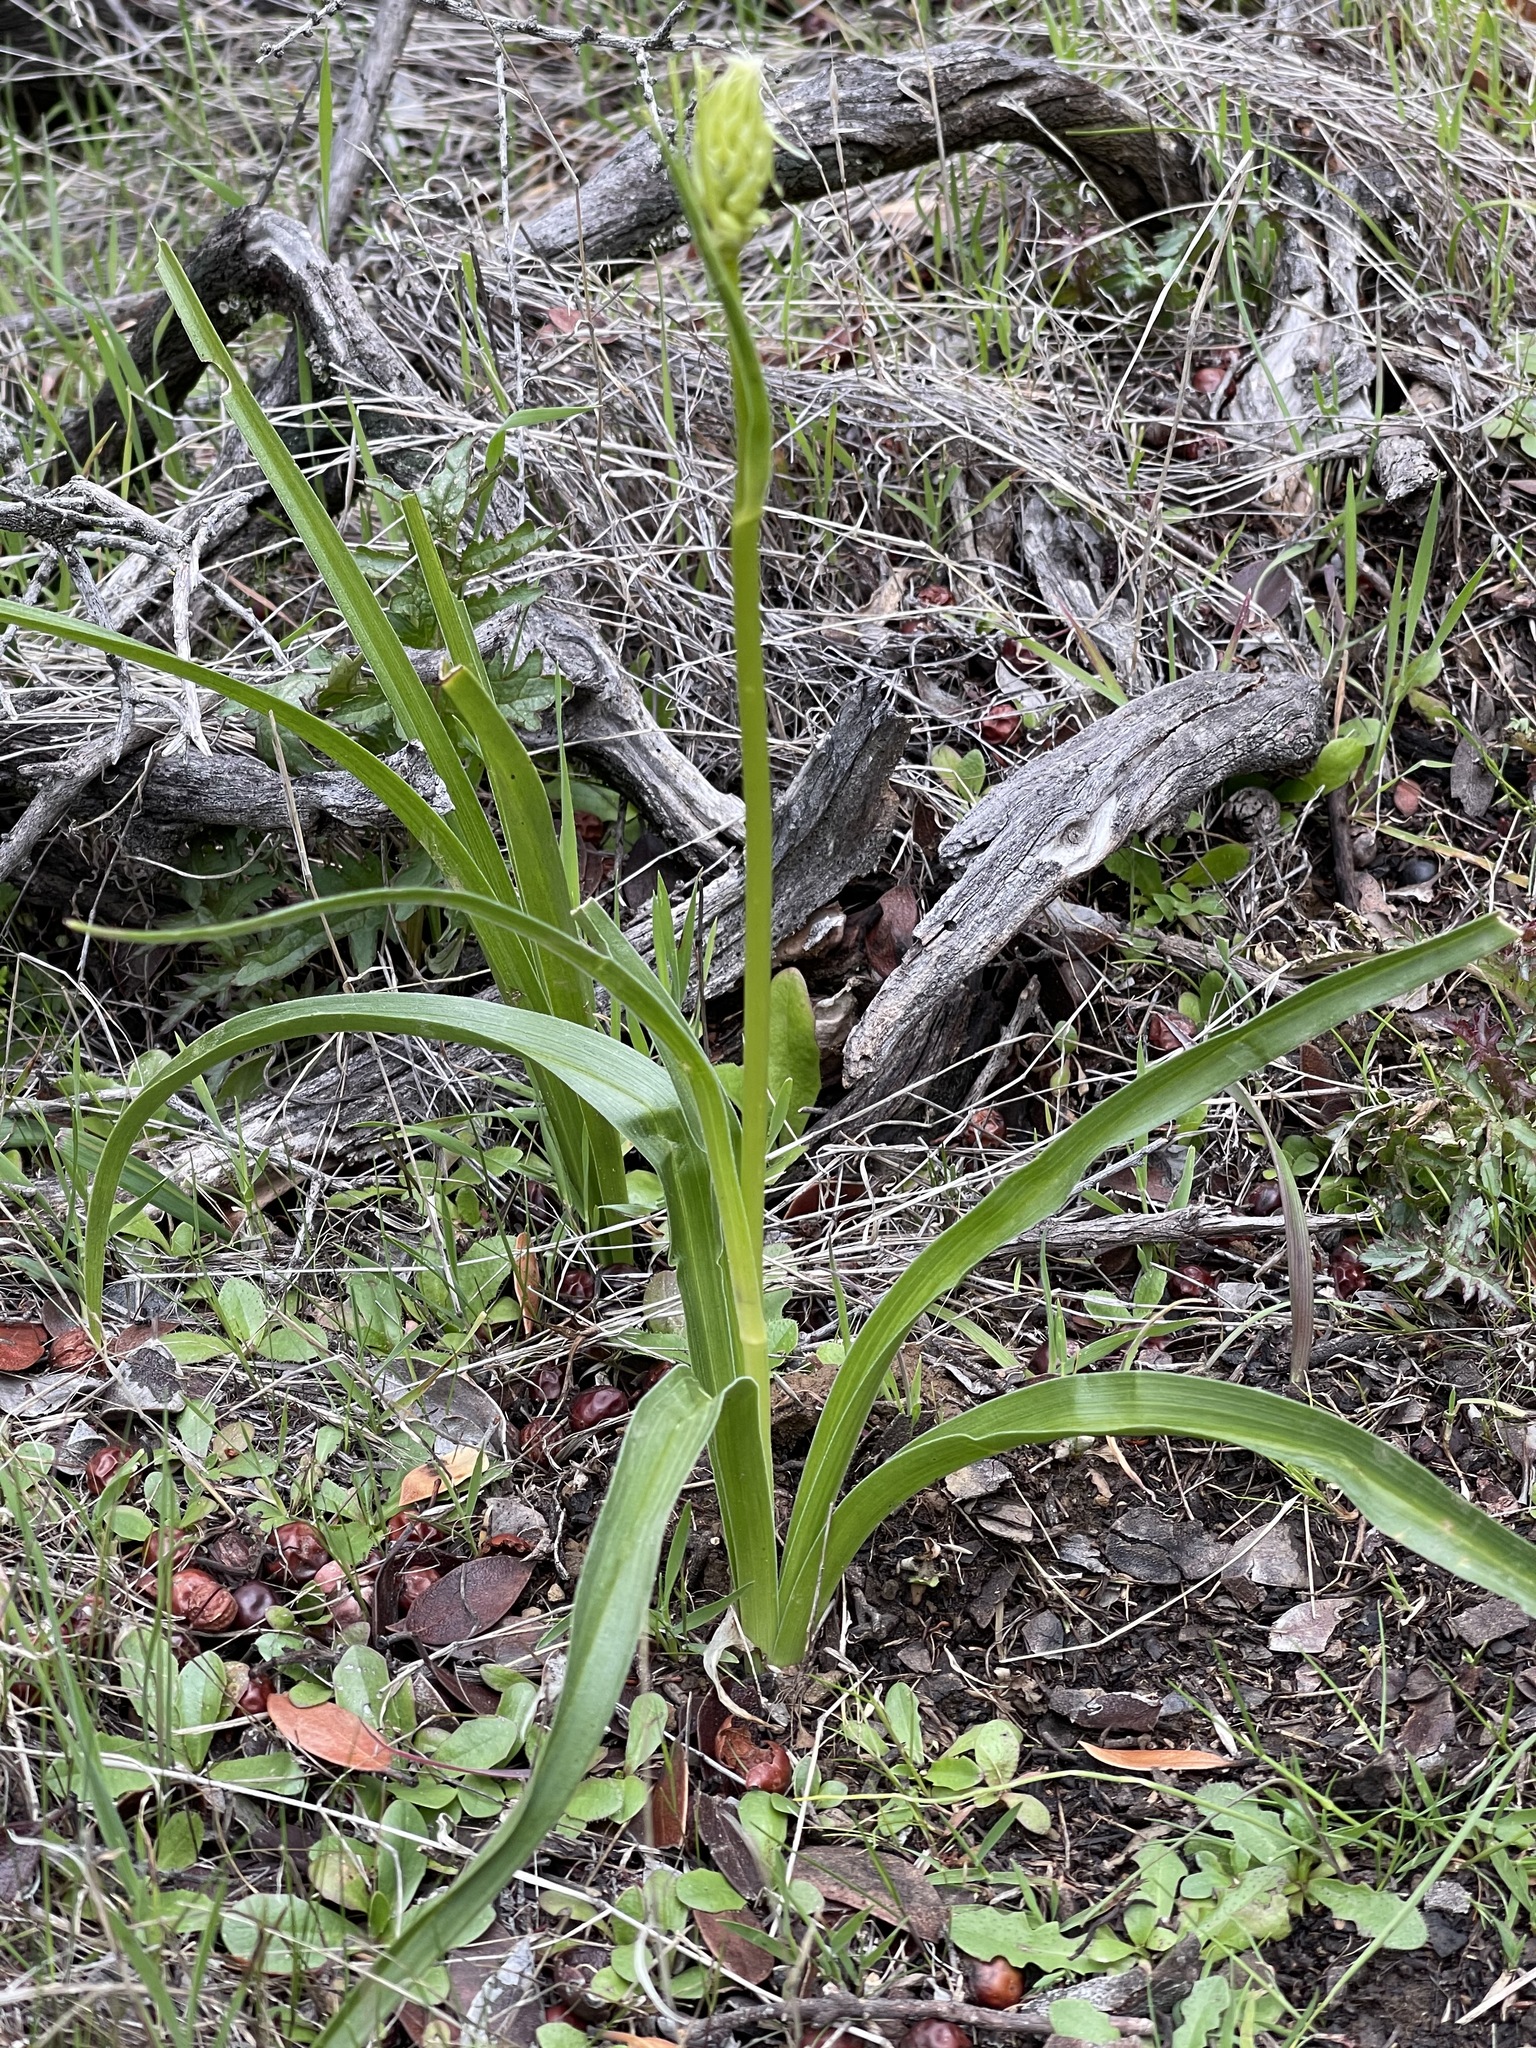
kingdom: Plantae
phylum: Tracheophyta
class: Liliopsida
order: Liliales
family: Melanthiaceae
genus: Toxicoscordion
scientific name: Toxicoscordion fremontii
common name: Fremont's death camas
